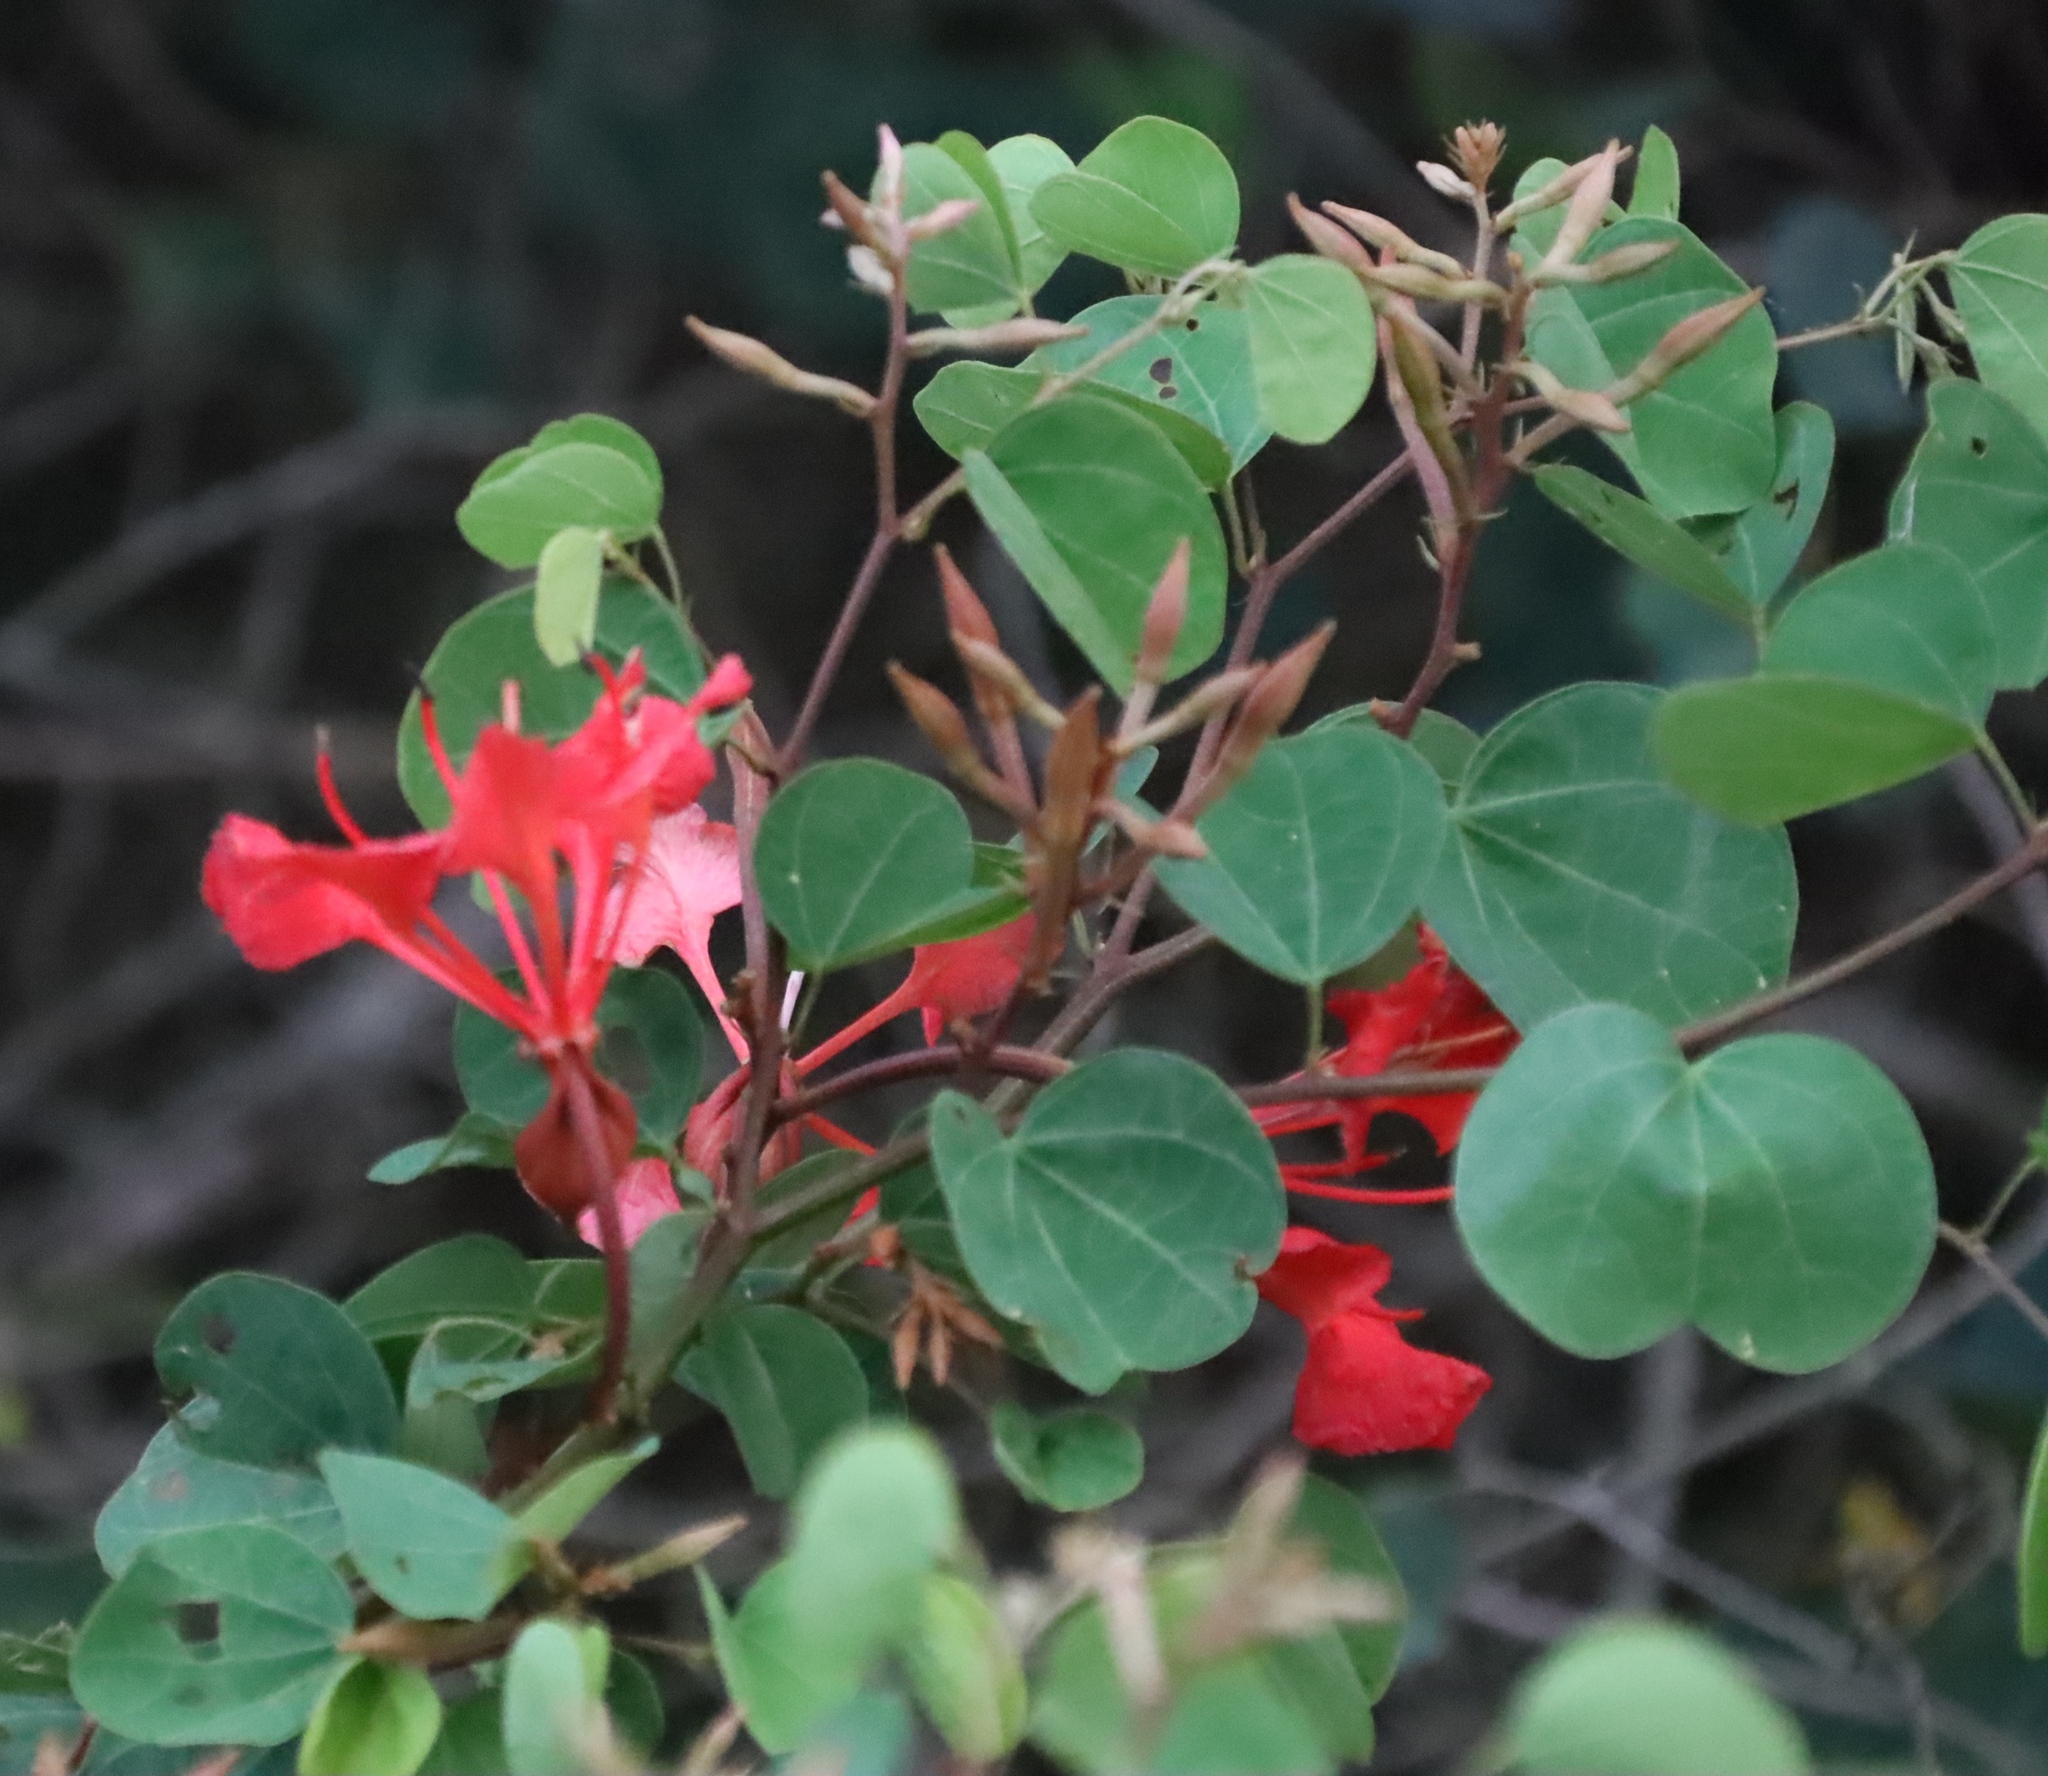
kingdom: Plantae
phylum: Tracheophyta
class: Magnoliopsida
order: Fabales
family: Fabaceae
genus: Bauhinia
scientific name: Bauhinia galpinii
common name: African plume
